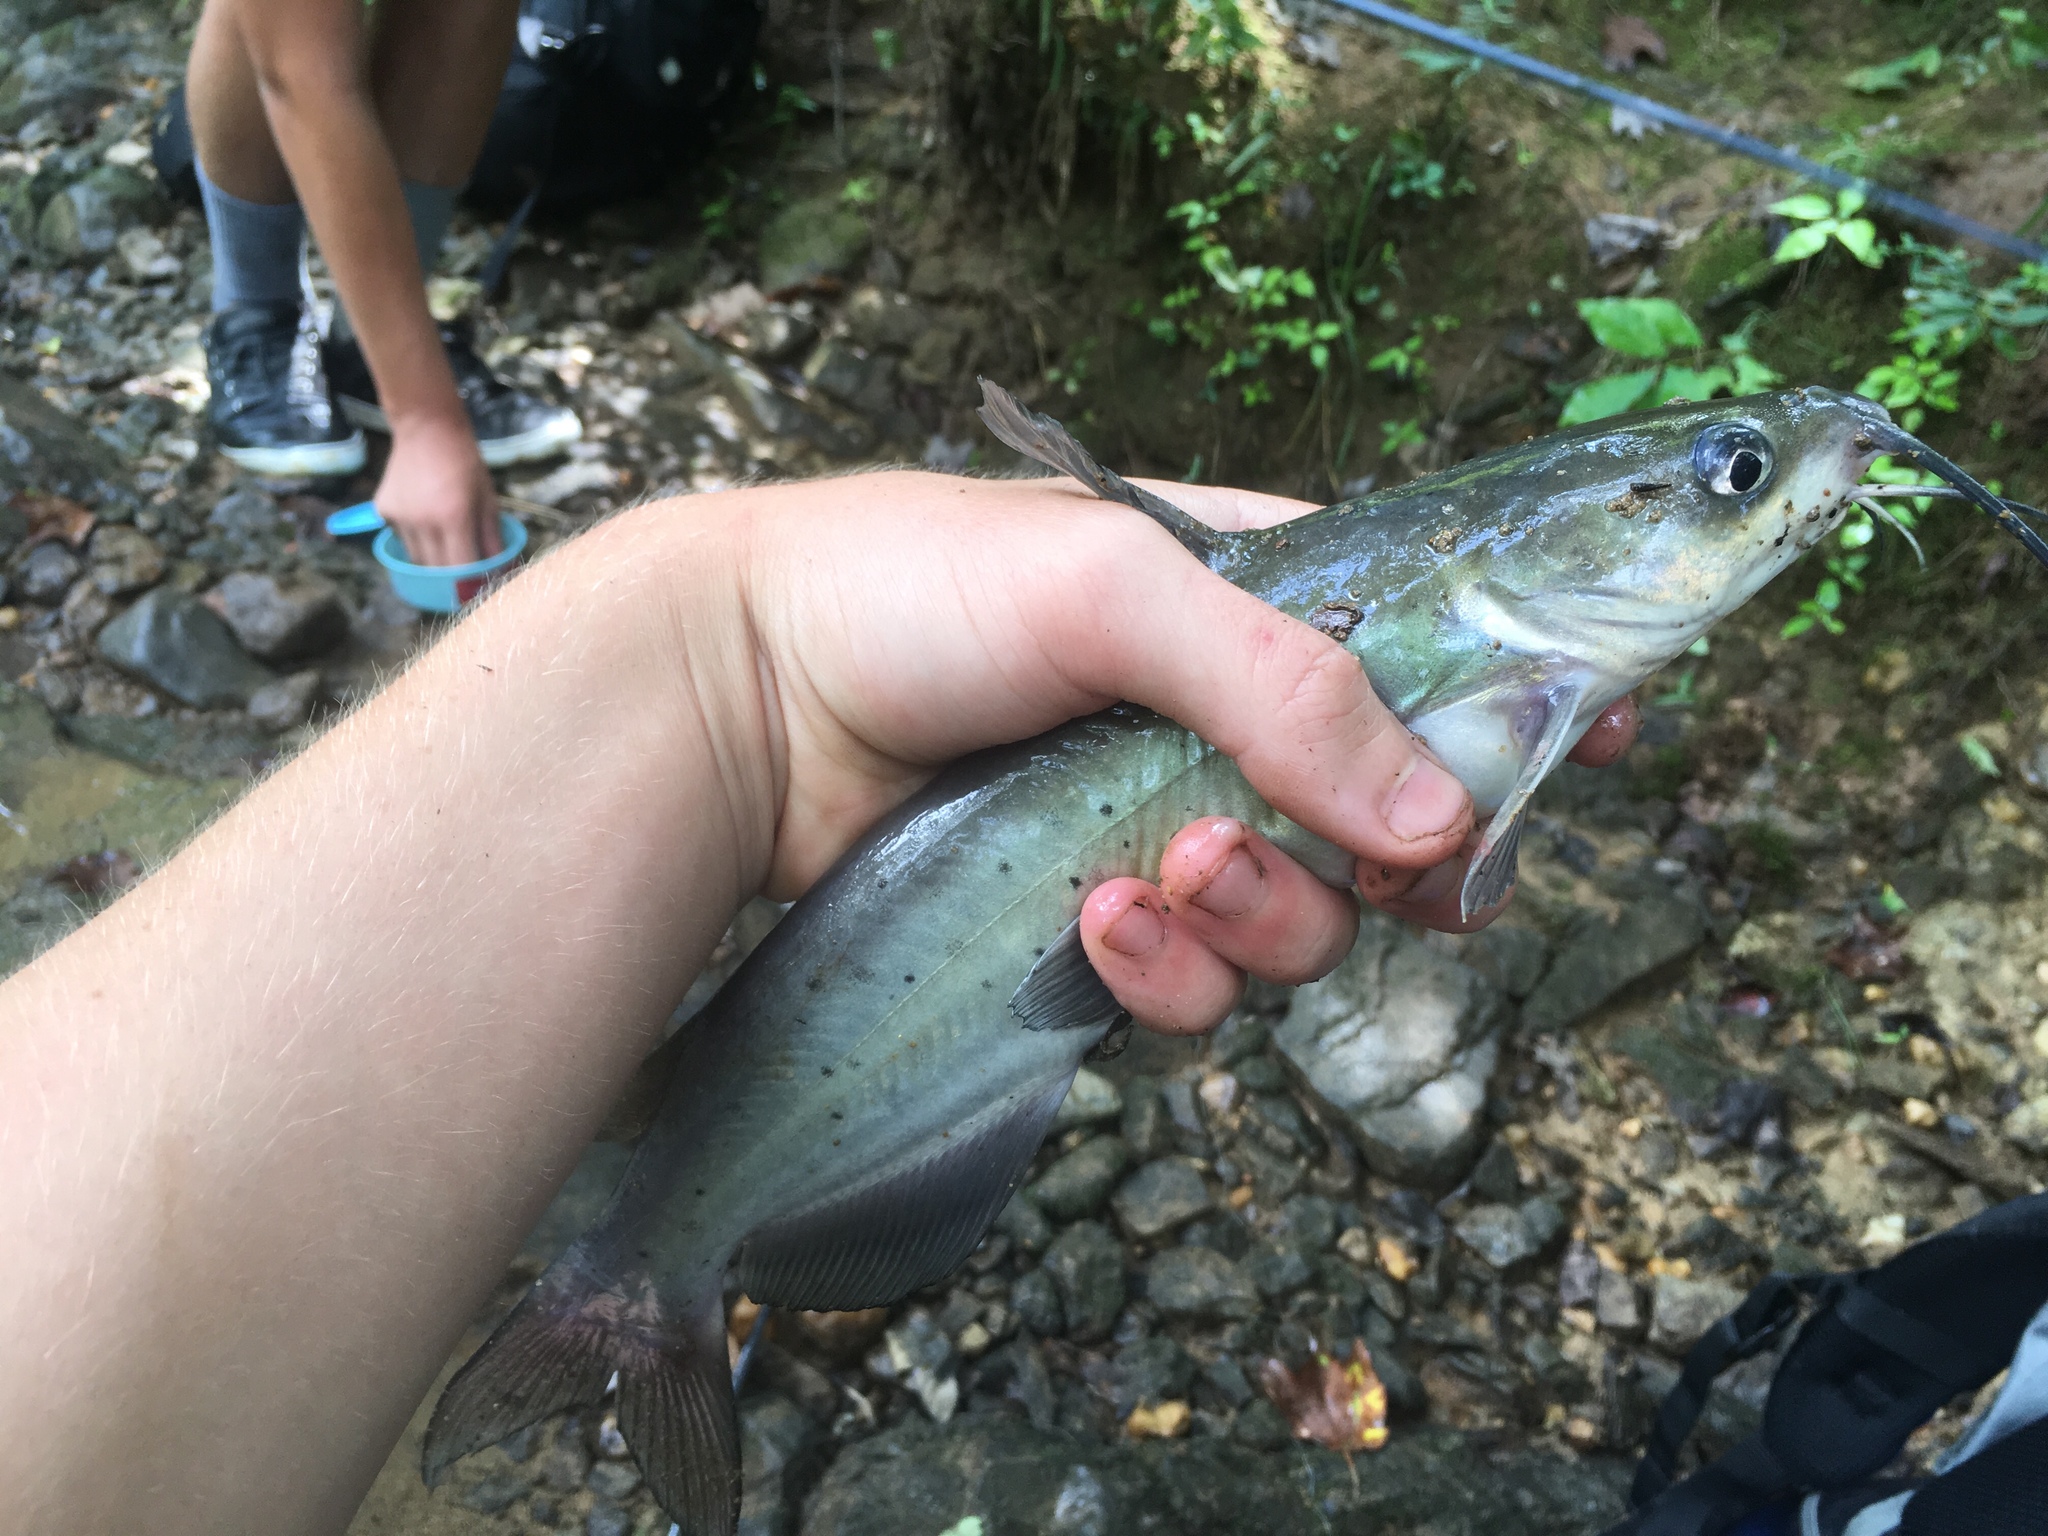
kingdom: Animalia
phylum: Chordata
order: Siluriformes
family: Ictaluridae
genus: Ictalurus
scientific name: Ictalurus punctatus
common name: Channel catfish
